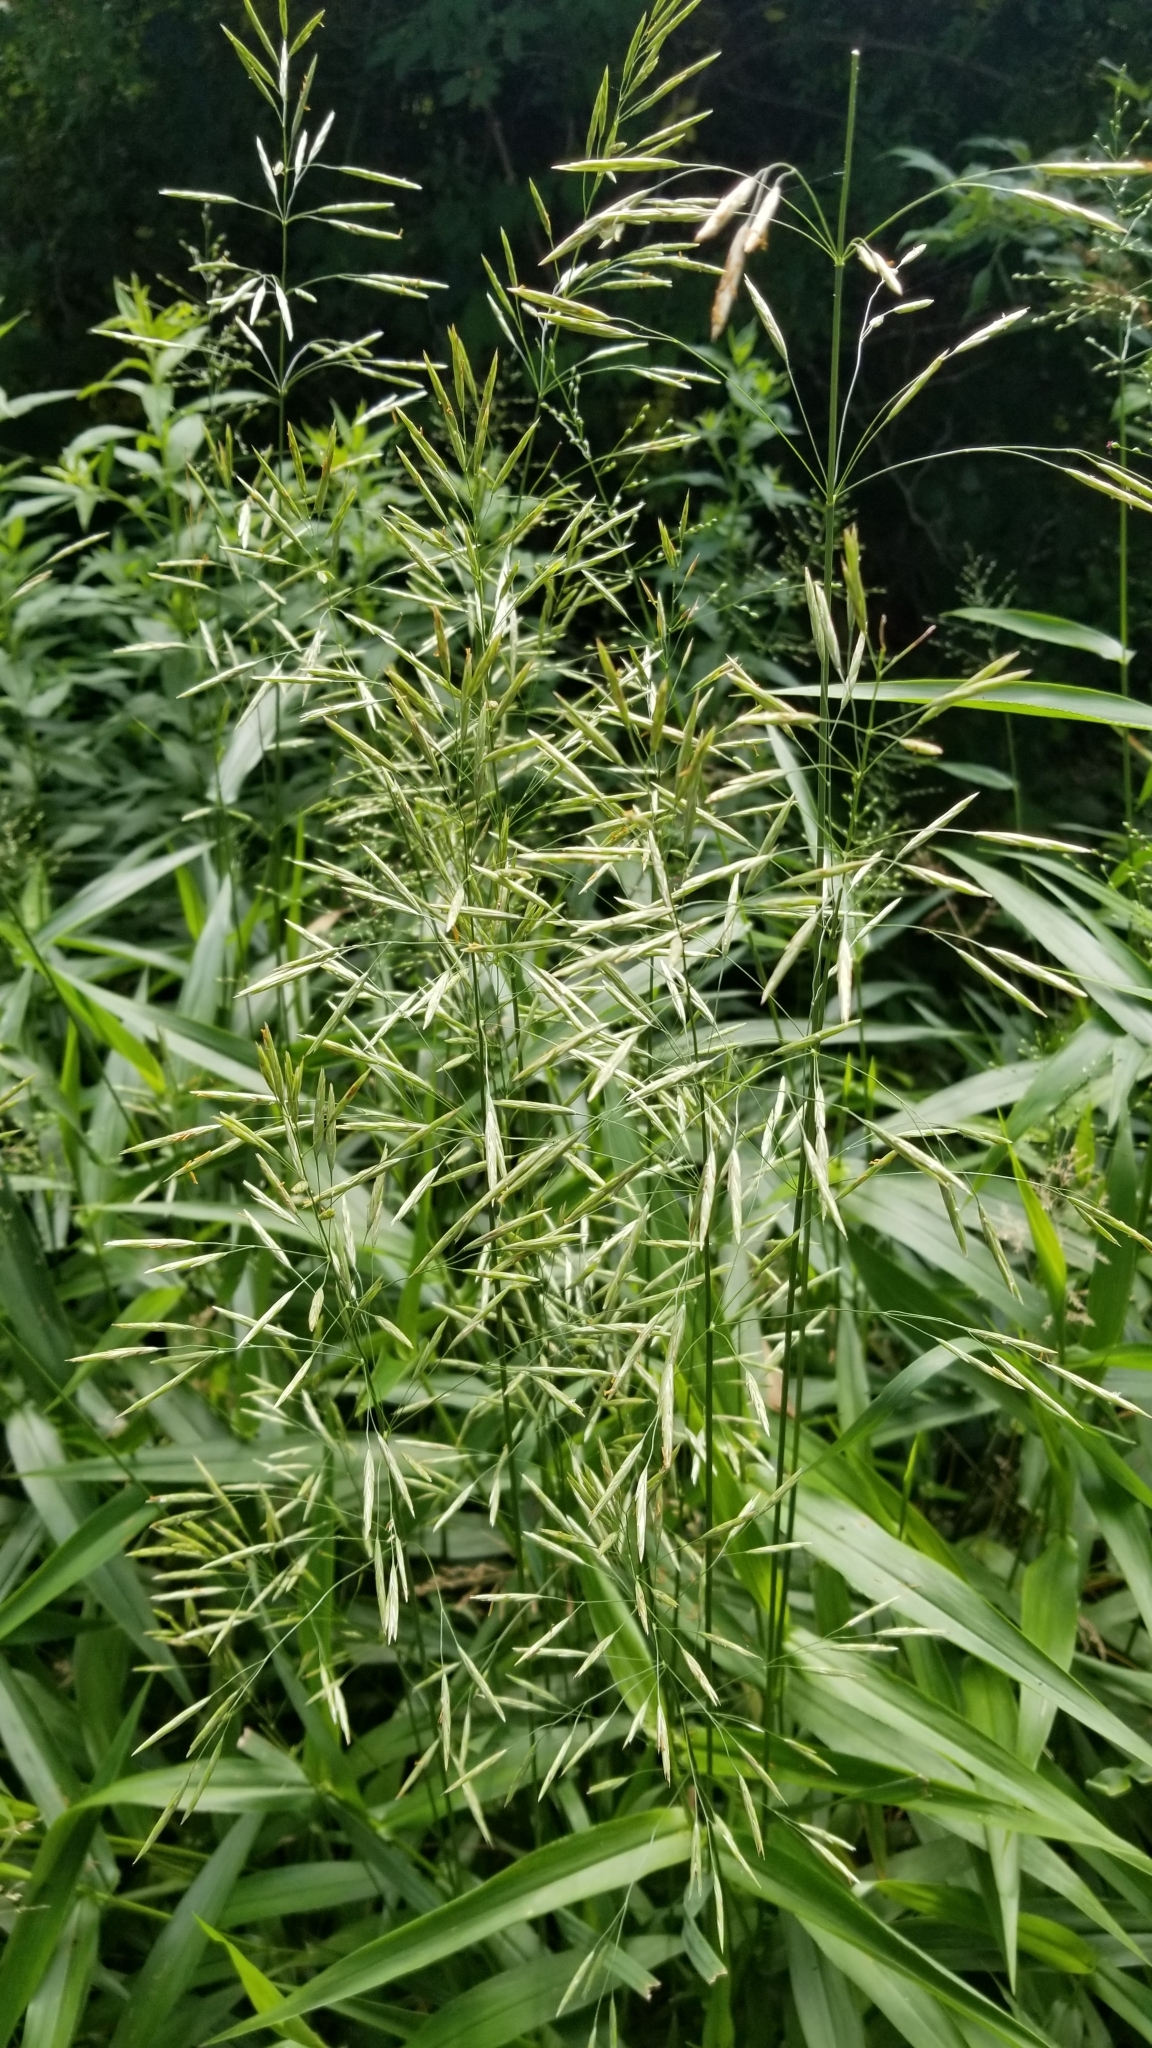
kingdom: Plantae
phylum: Tracheophyta
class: Liliopsida
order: Poales
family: Poaceae
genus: Bromus
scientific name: Bromus inermis
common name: Smooth brome
